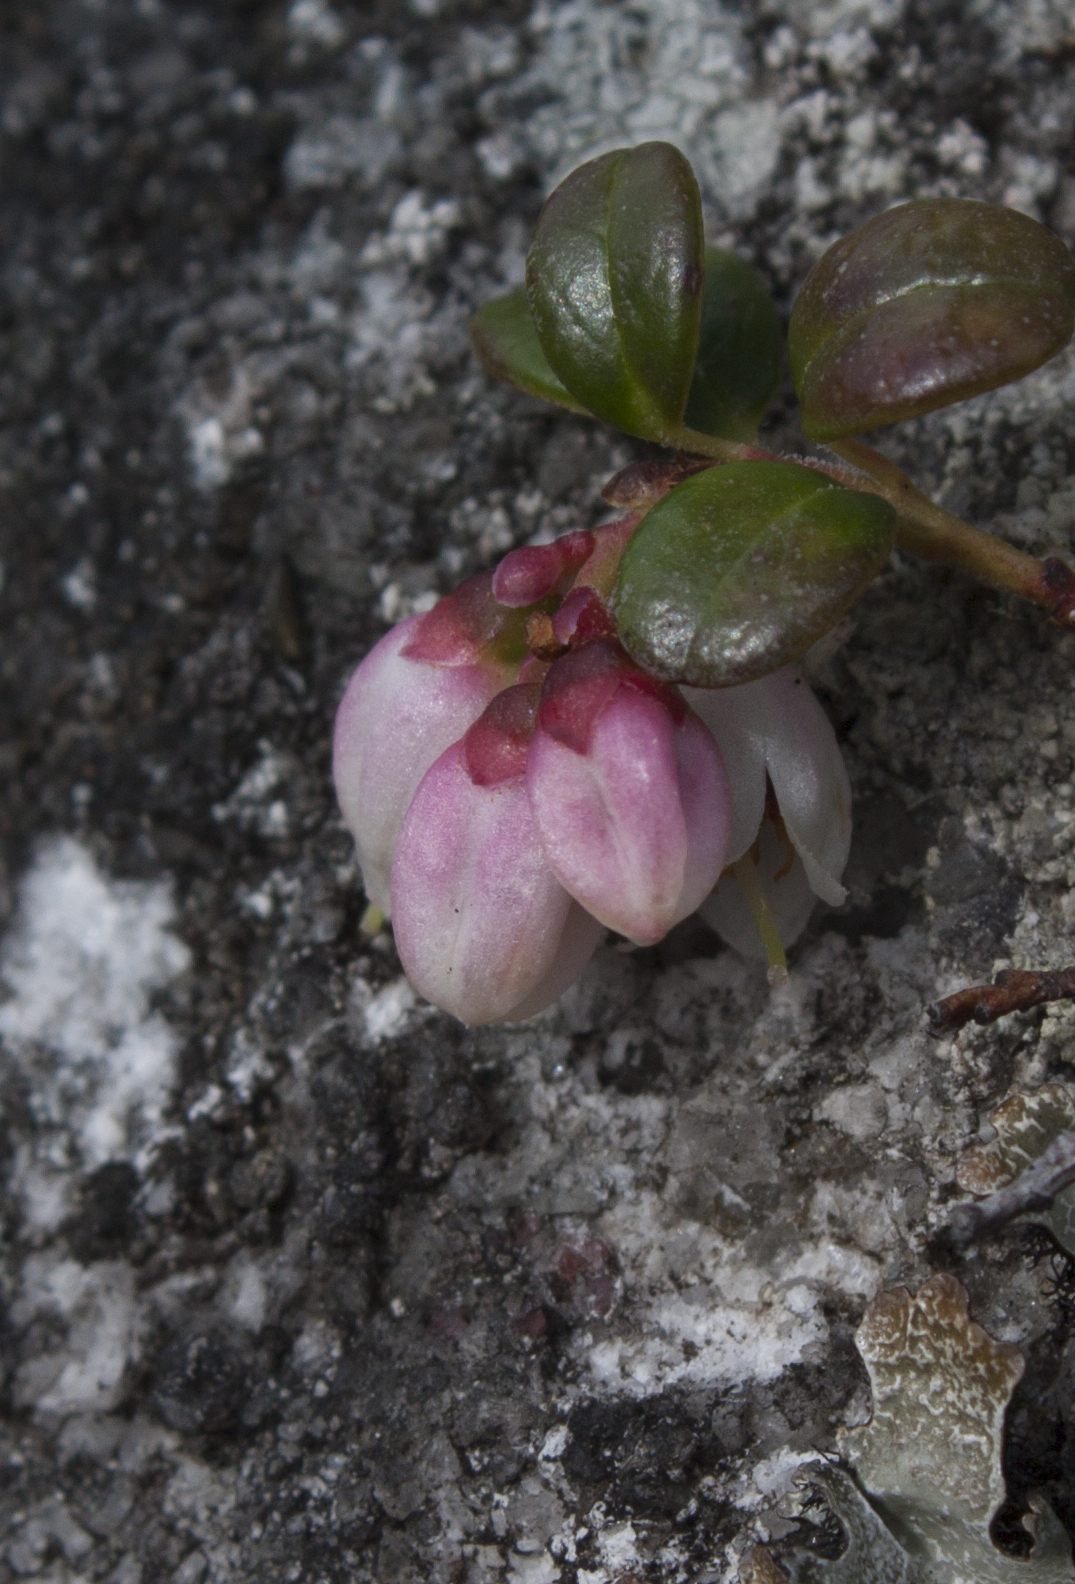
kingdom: Plantae
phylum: Tracheophyta
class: Magnoliopsida
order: Ericales
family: Ericaceae
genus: Vaccinium
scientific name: Vaccinium vitis-idaea
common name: Cowberry
